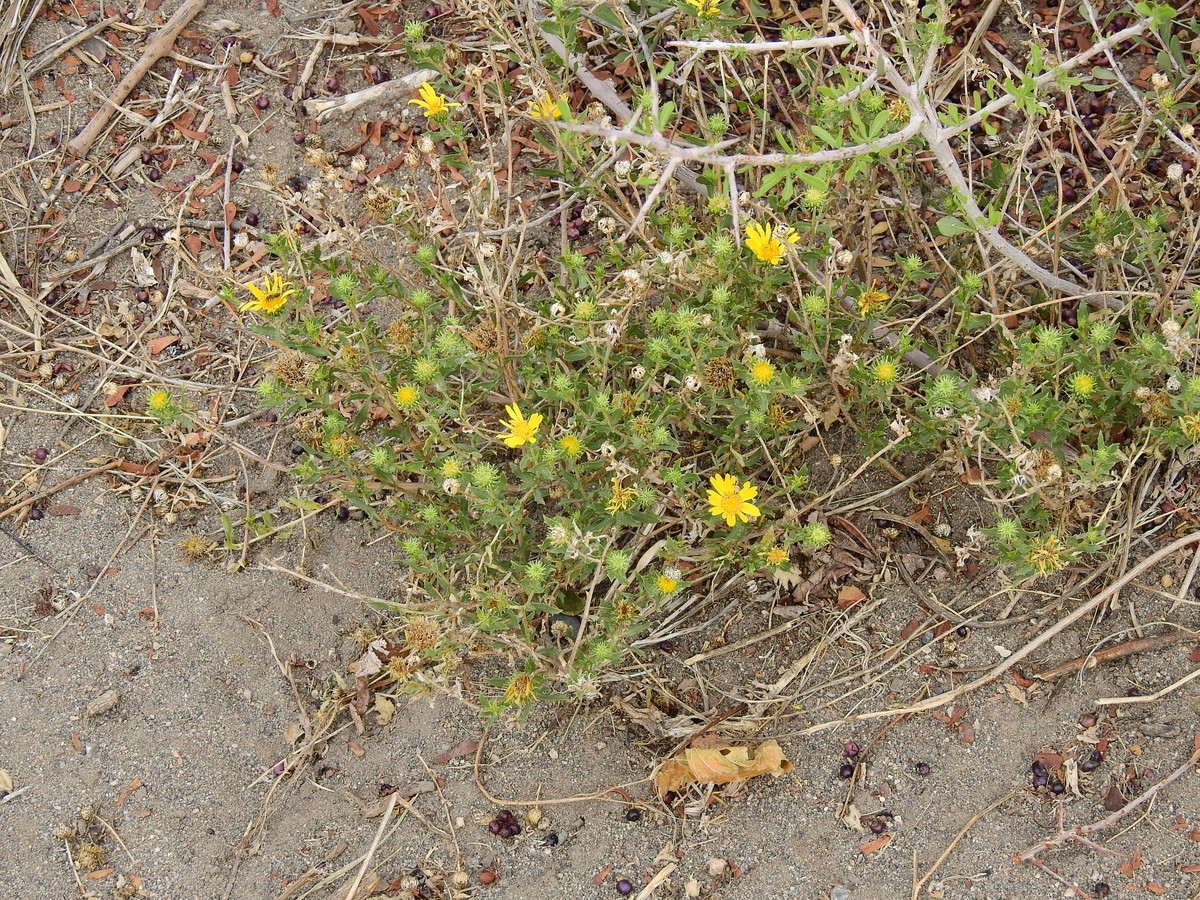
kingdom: Plantae
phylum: Tracheophyta
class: Magnoliopsida
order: Asterales
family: Asteraceae
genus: Grindelia
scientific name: Grindelia pulchella
